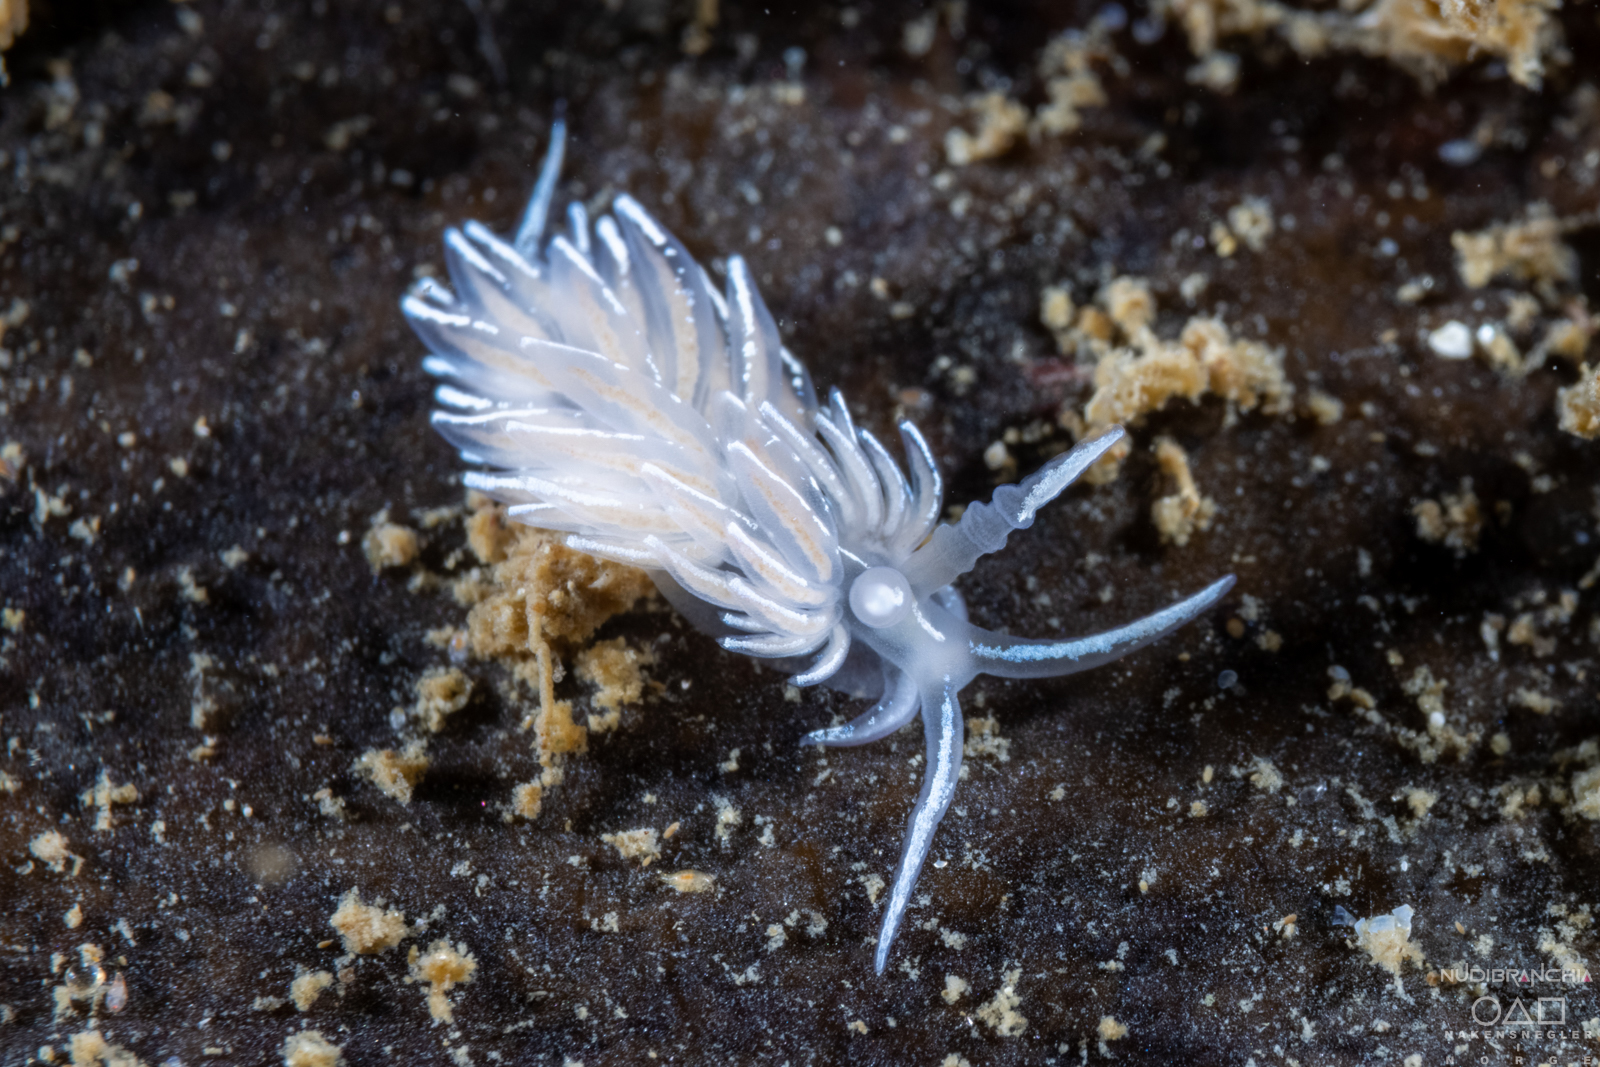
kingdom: Animalia
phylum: Mollusca
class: Gastropoda
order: Nudibranchia
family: Facelinidae
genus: Favorinus
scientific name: Favorinus blianus
